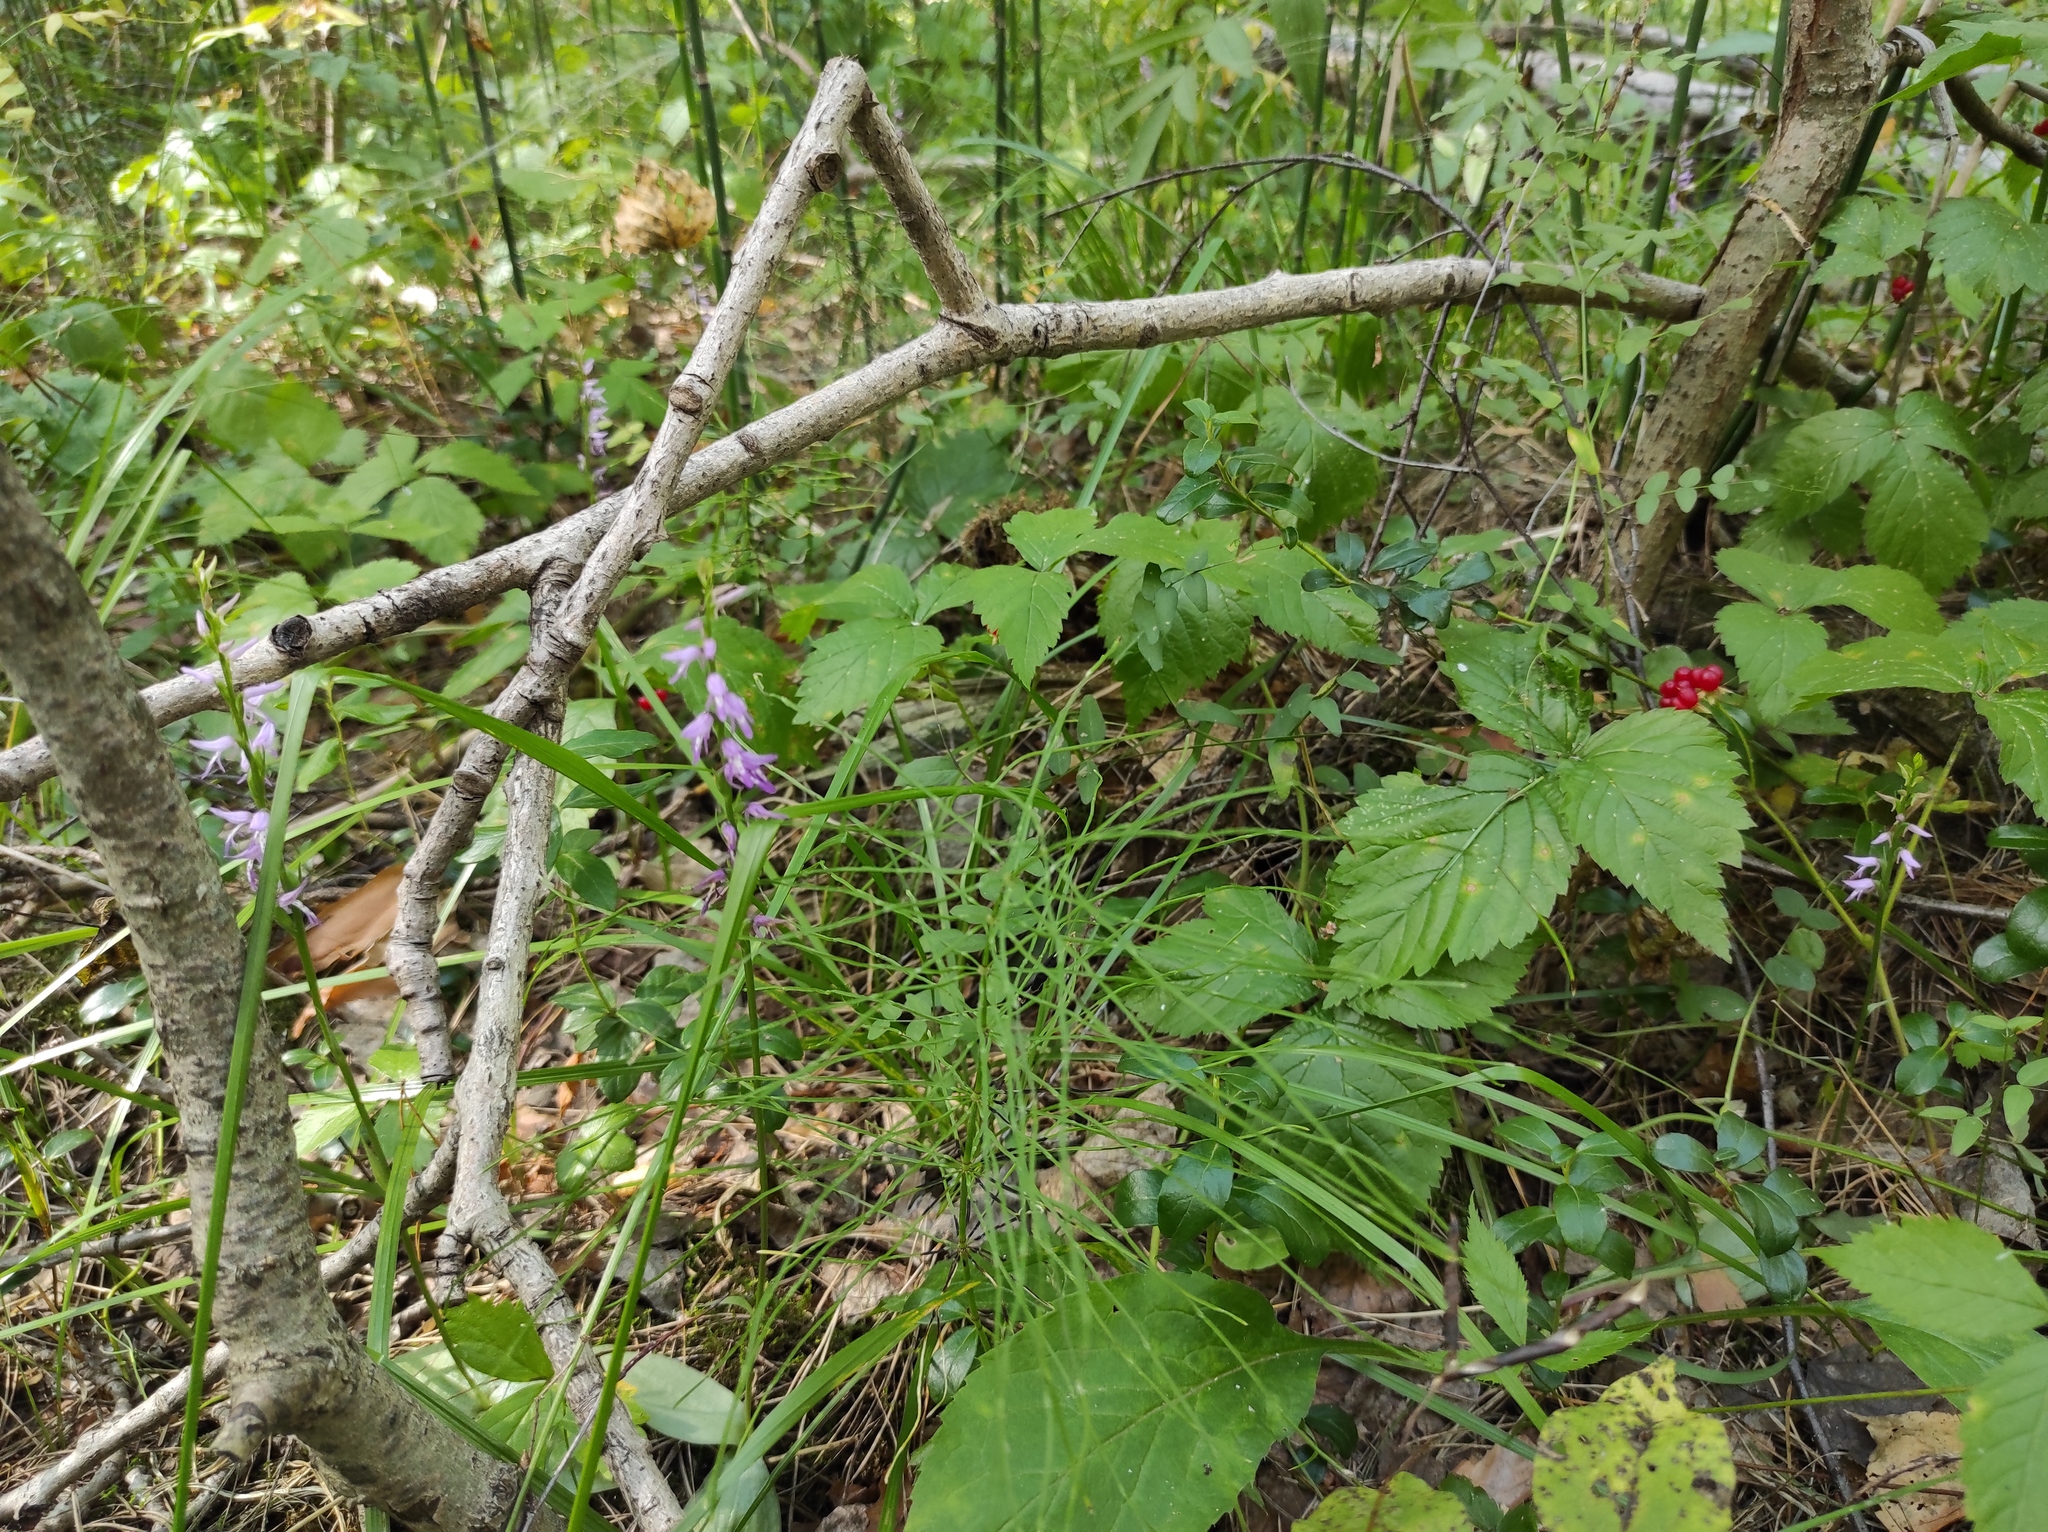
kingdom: Plantae
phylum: Tracheophyta
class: Liliopsida
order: Asparagales
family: Orchidaceae
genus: Hemipilia
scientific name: Hemipilia cucullata
